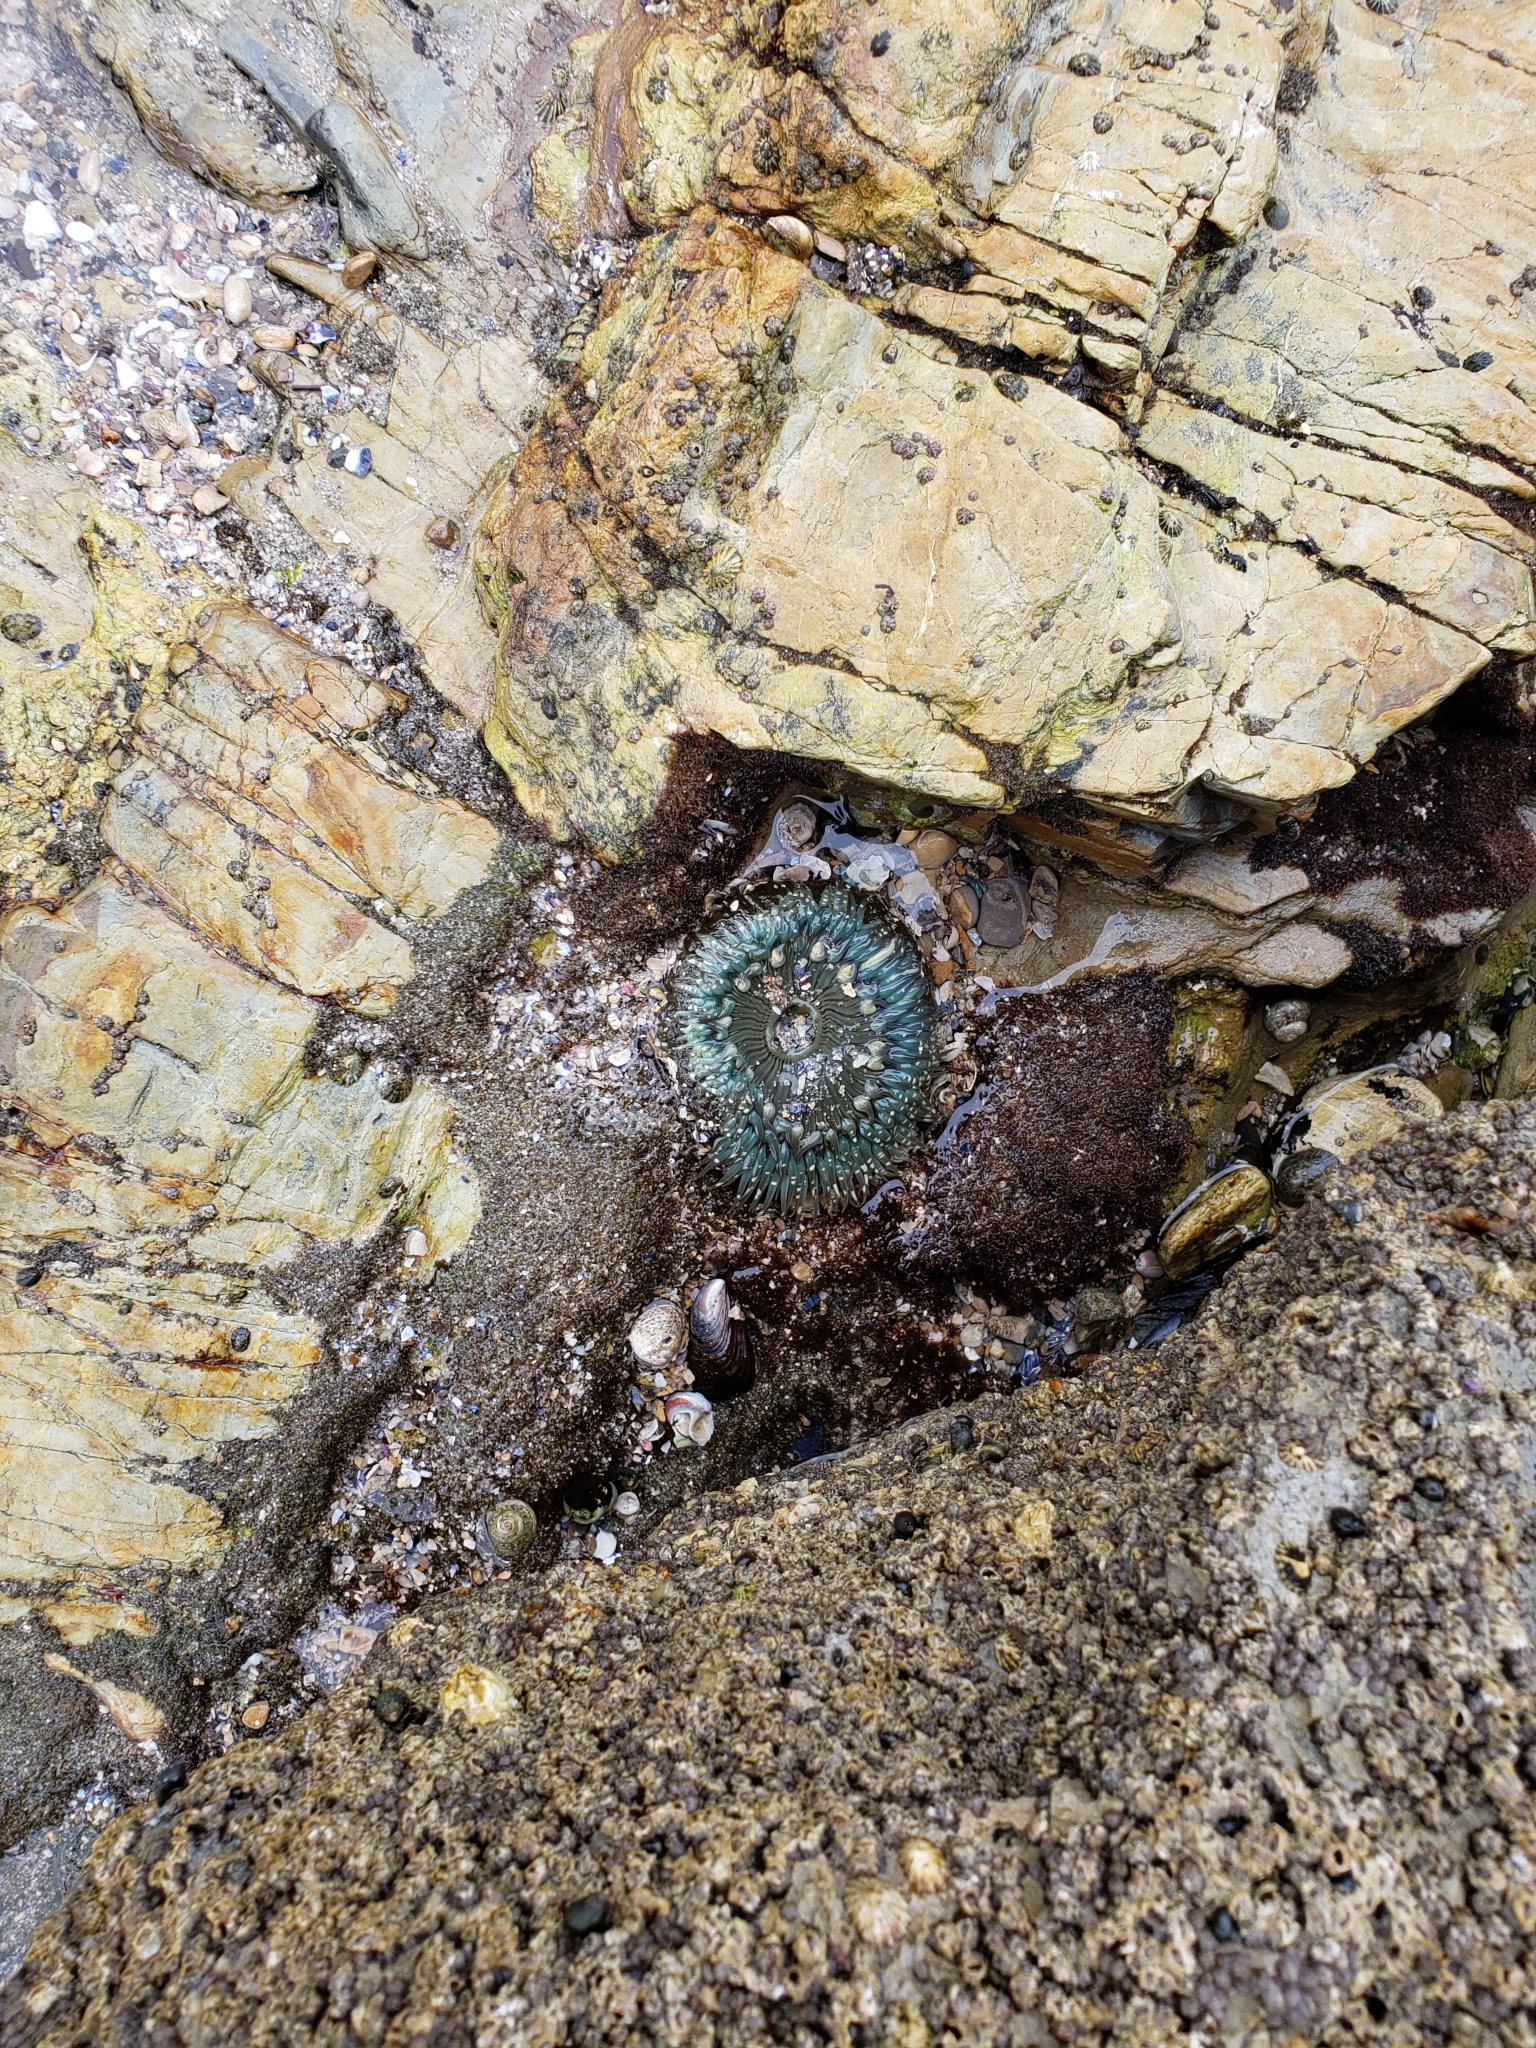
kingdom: Animalia
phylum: Cnidaria
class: Anthozoa
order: Actiniaria
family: Actiniidae
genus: Anthopleura
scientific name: Anthopleura sola
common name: Sun anemone
